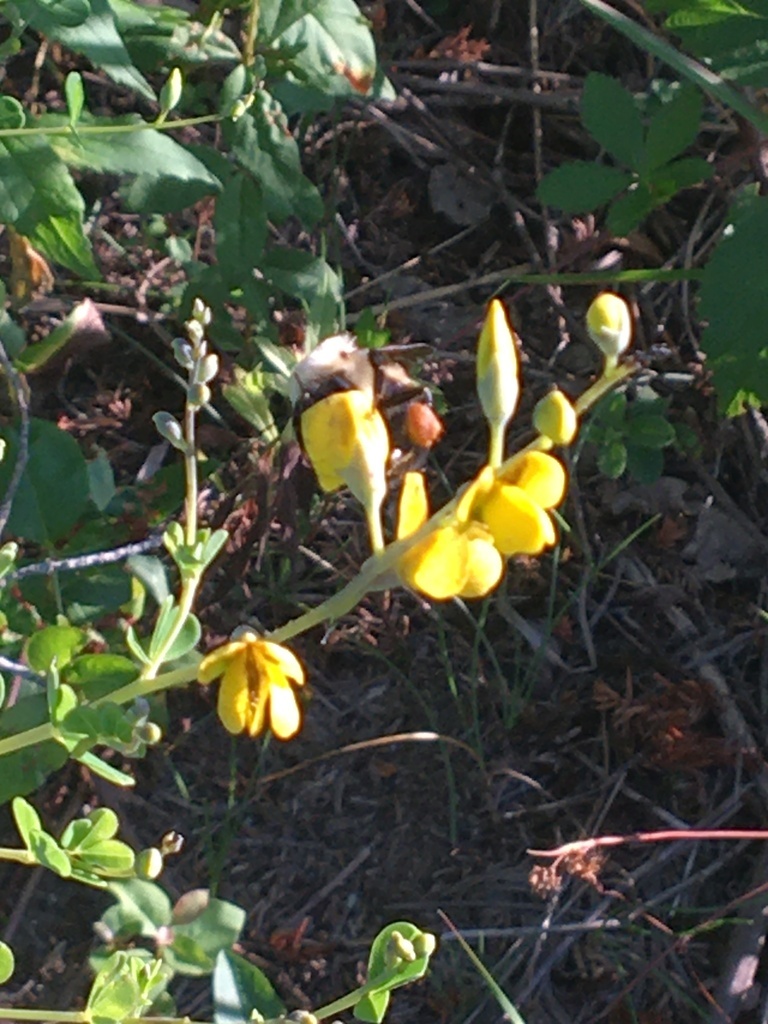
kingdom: Plantae
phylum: Tracheophyta
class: Magnoliopsida
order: Fabales
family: Fabaceae
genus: Baptisia
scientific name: Baptisia tinctoria
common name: Wild indigo
